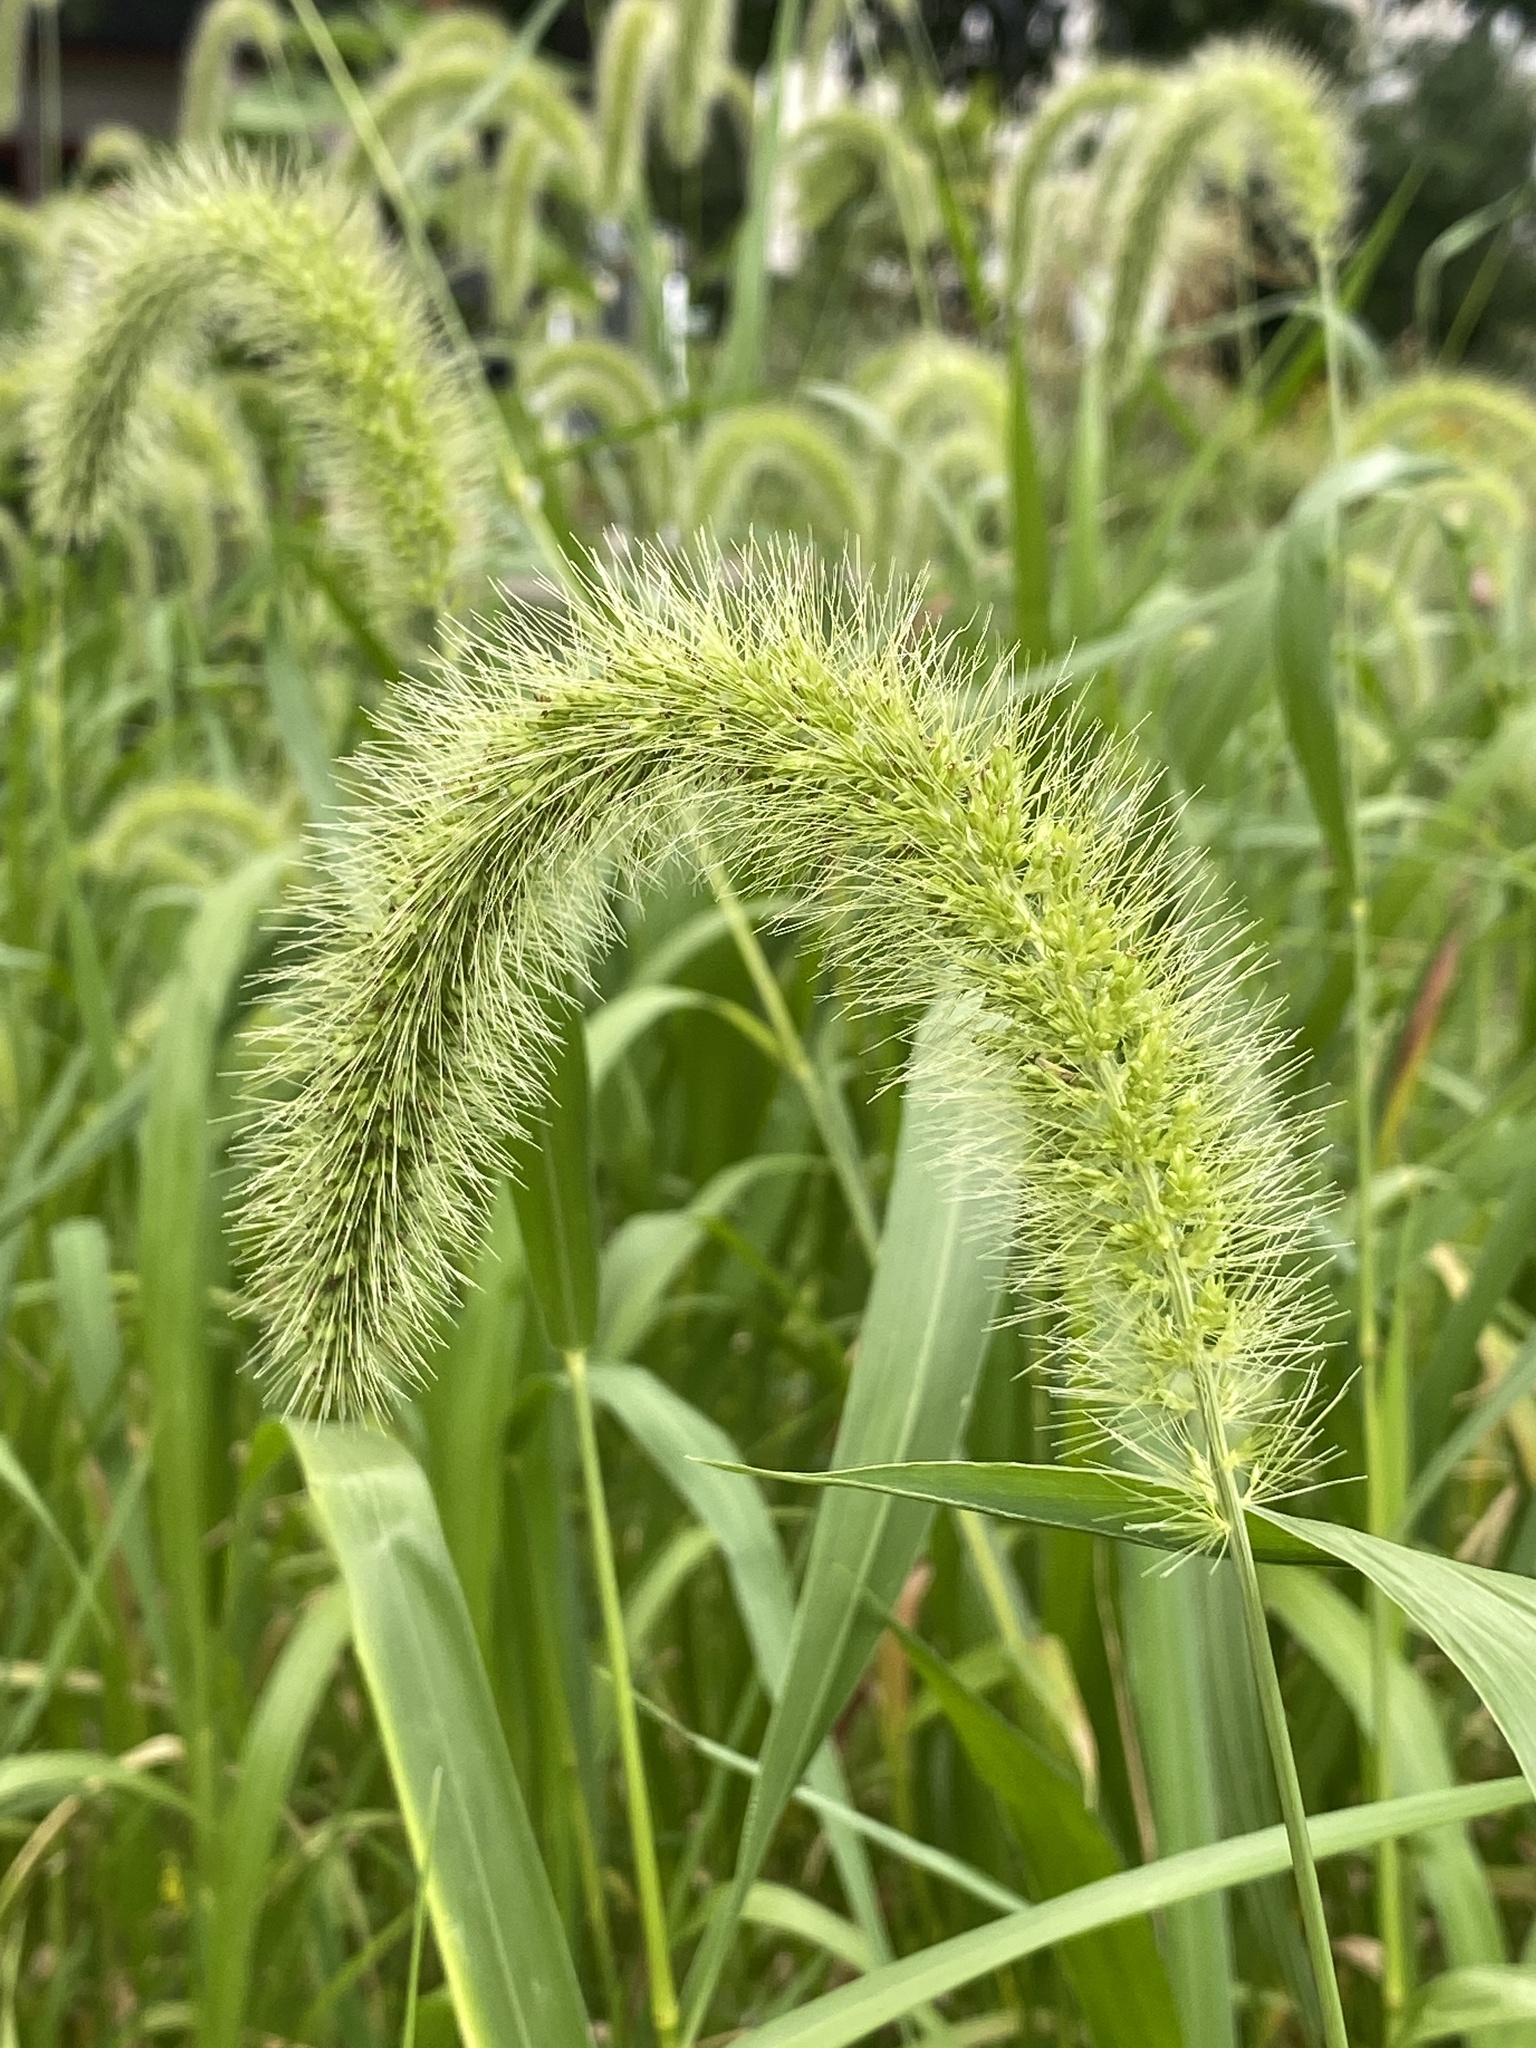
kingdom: Plantae
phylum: Tracheophyta
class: Liliopsida
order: Poales
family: Poaceae
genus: Setaria
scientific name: Setaria faberi
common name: Nodding bristle-grass
